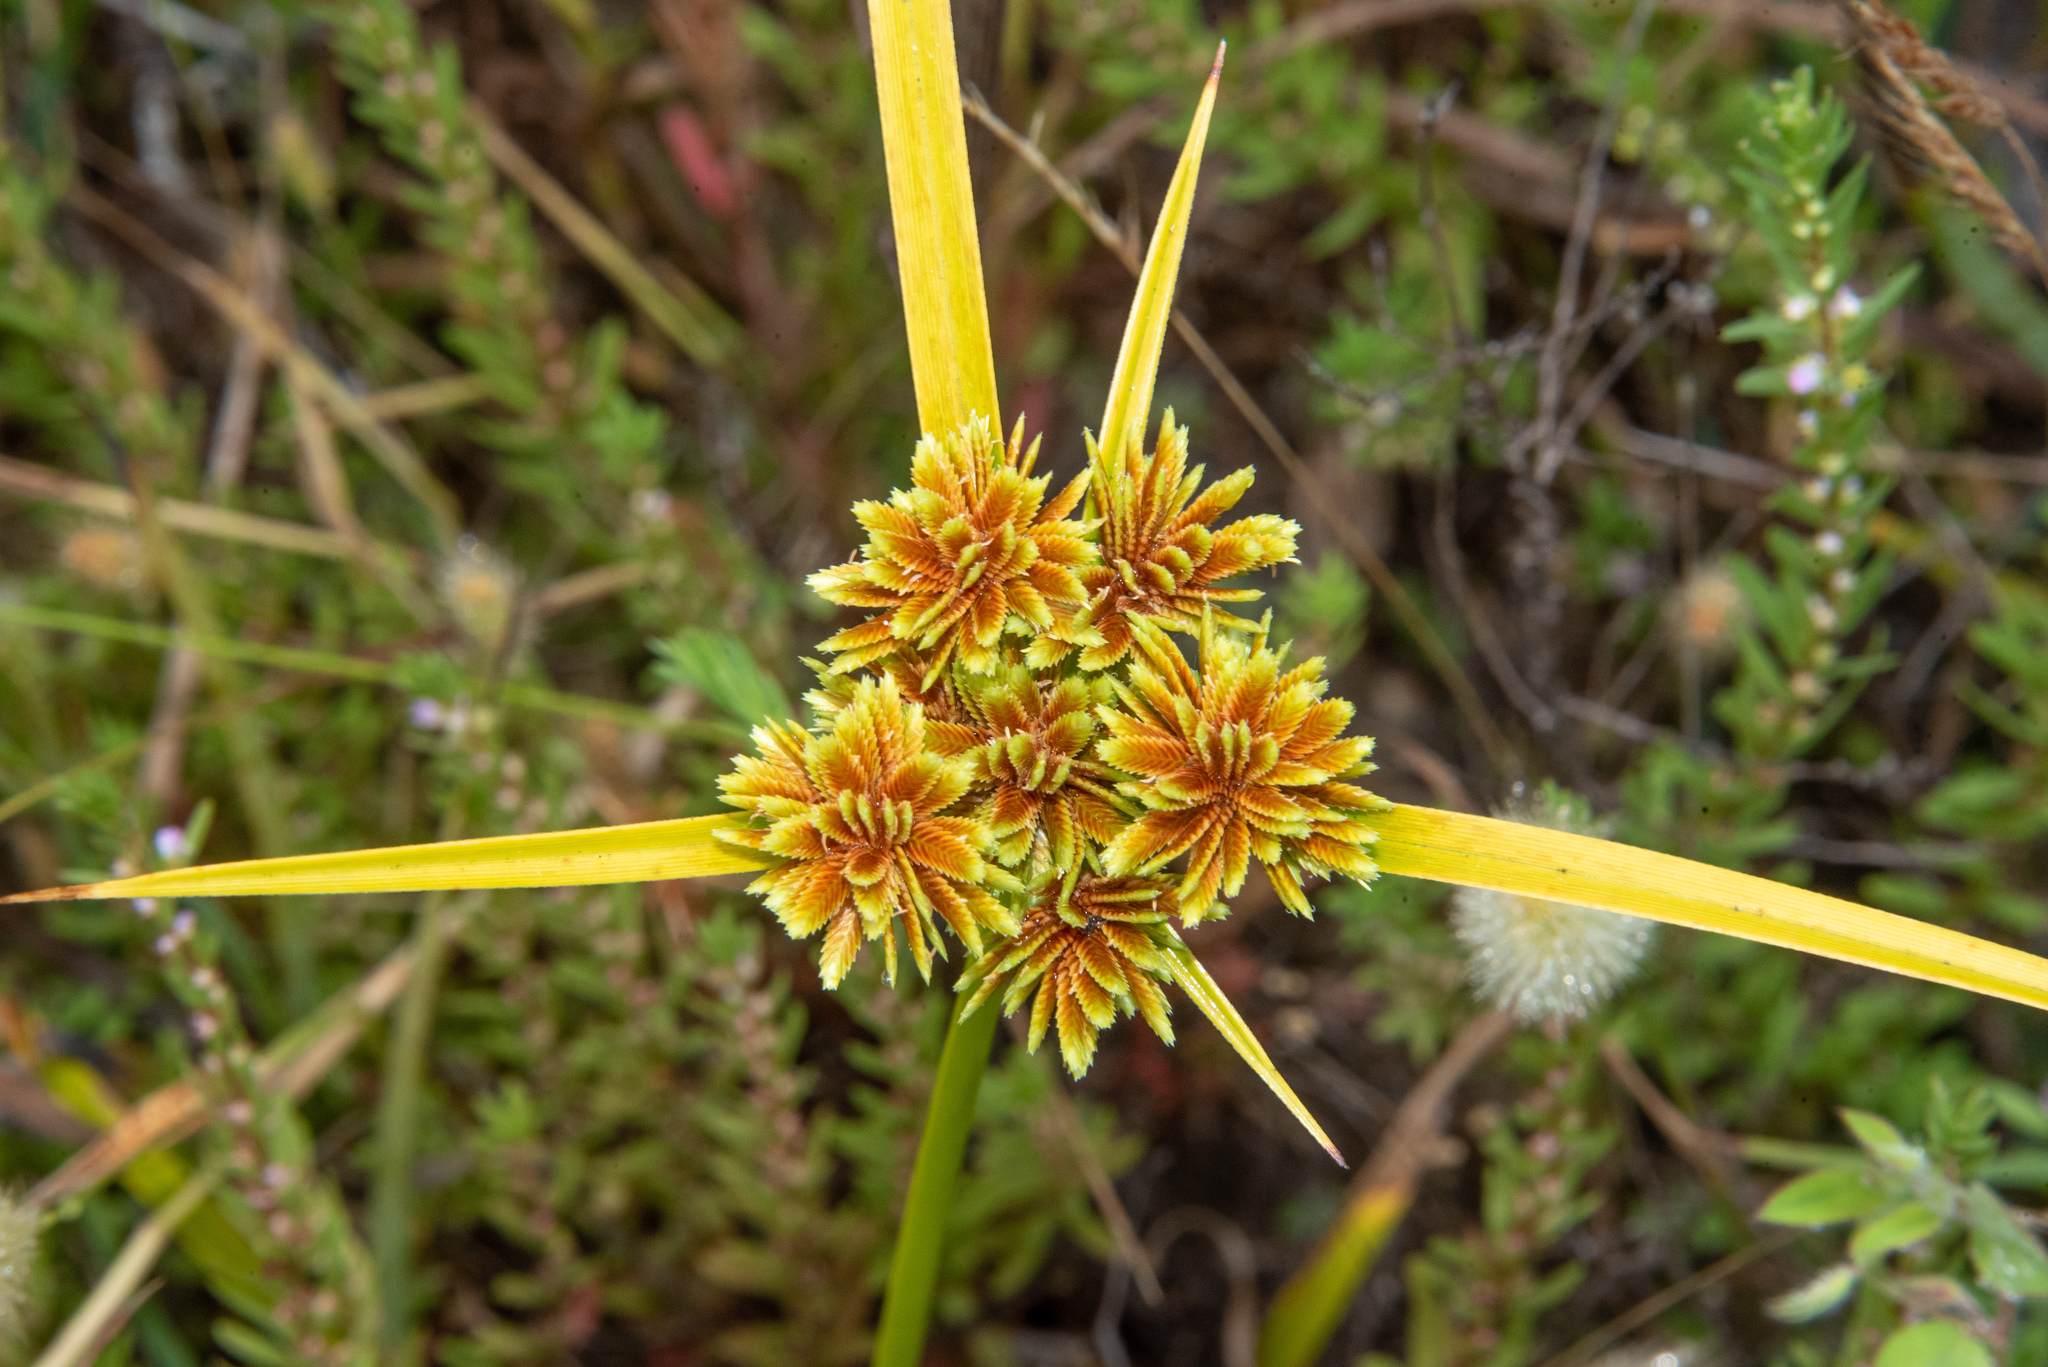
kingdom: Plantae
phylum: Tracheophyta
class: Liliopsida
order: Poales
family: Cyperaceae
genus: Cyperus
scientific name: Cyperus eragrostis
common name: Tall flatsedge
